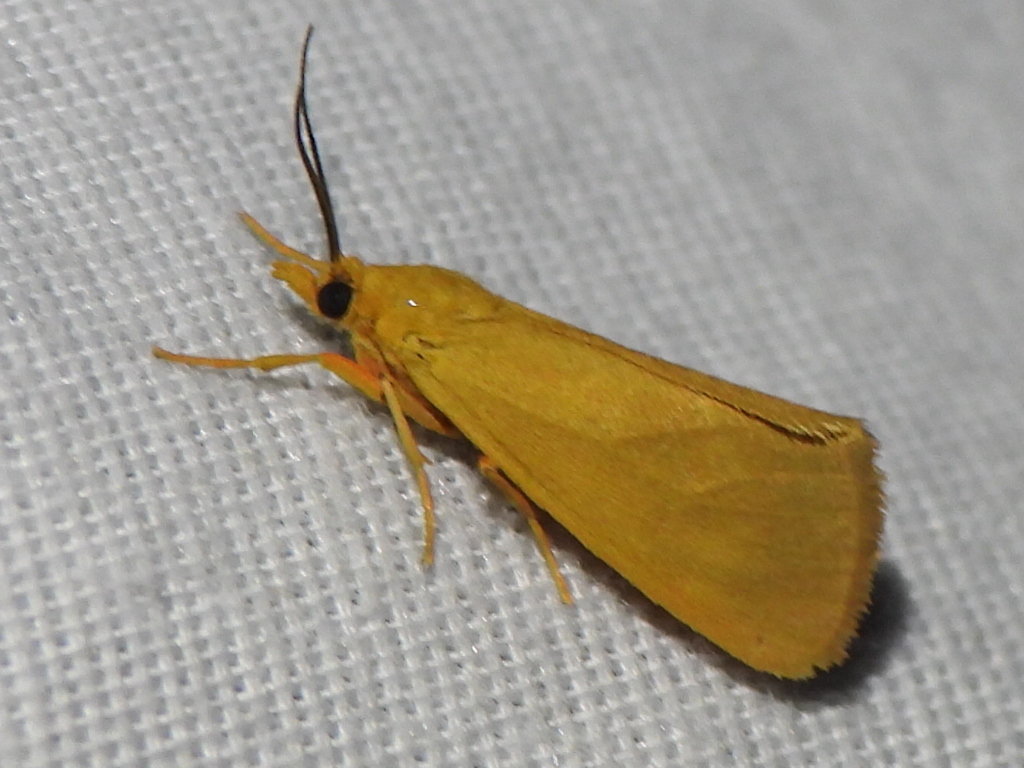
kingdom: Animalia
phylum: Arthropoda
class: Insecta
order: Lepidoptera
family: Erebidae
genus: Virbia
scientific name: Virbia aurantiaca
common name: Orange virbia moth
